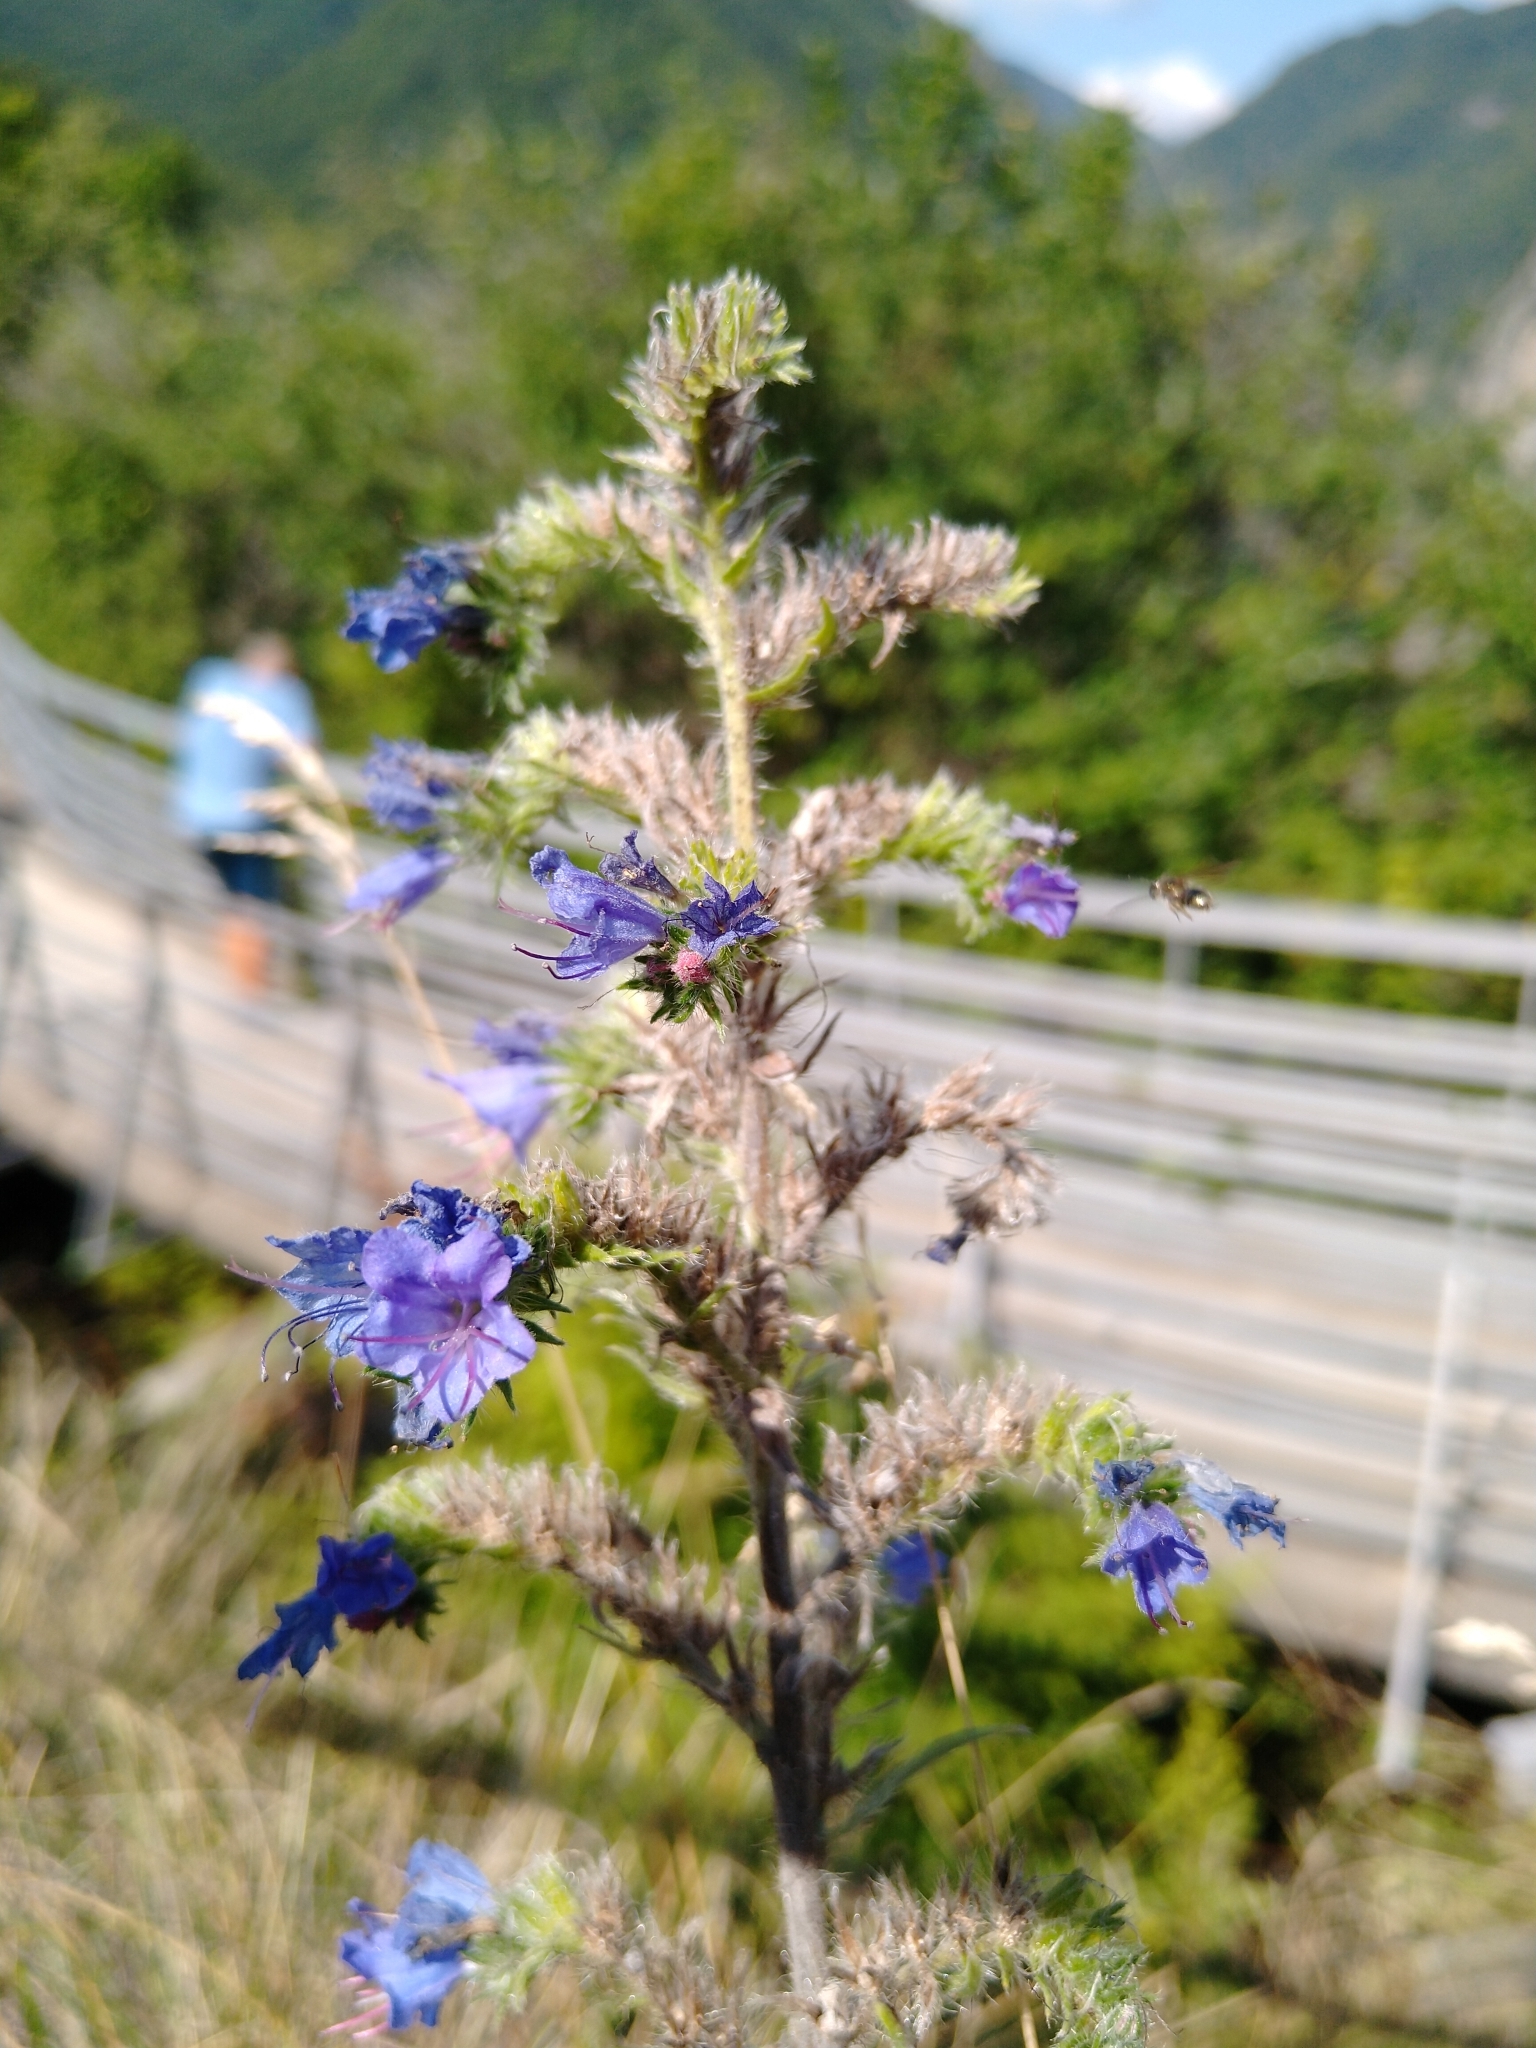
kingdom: Plantae
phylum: Tracheophyta
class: Magnoliopsida
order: Boraginales
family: Boraginaceae
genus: Echium
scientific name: Echium vulgare
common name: Common viper's bugloss
